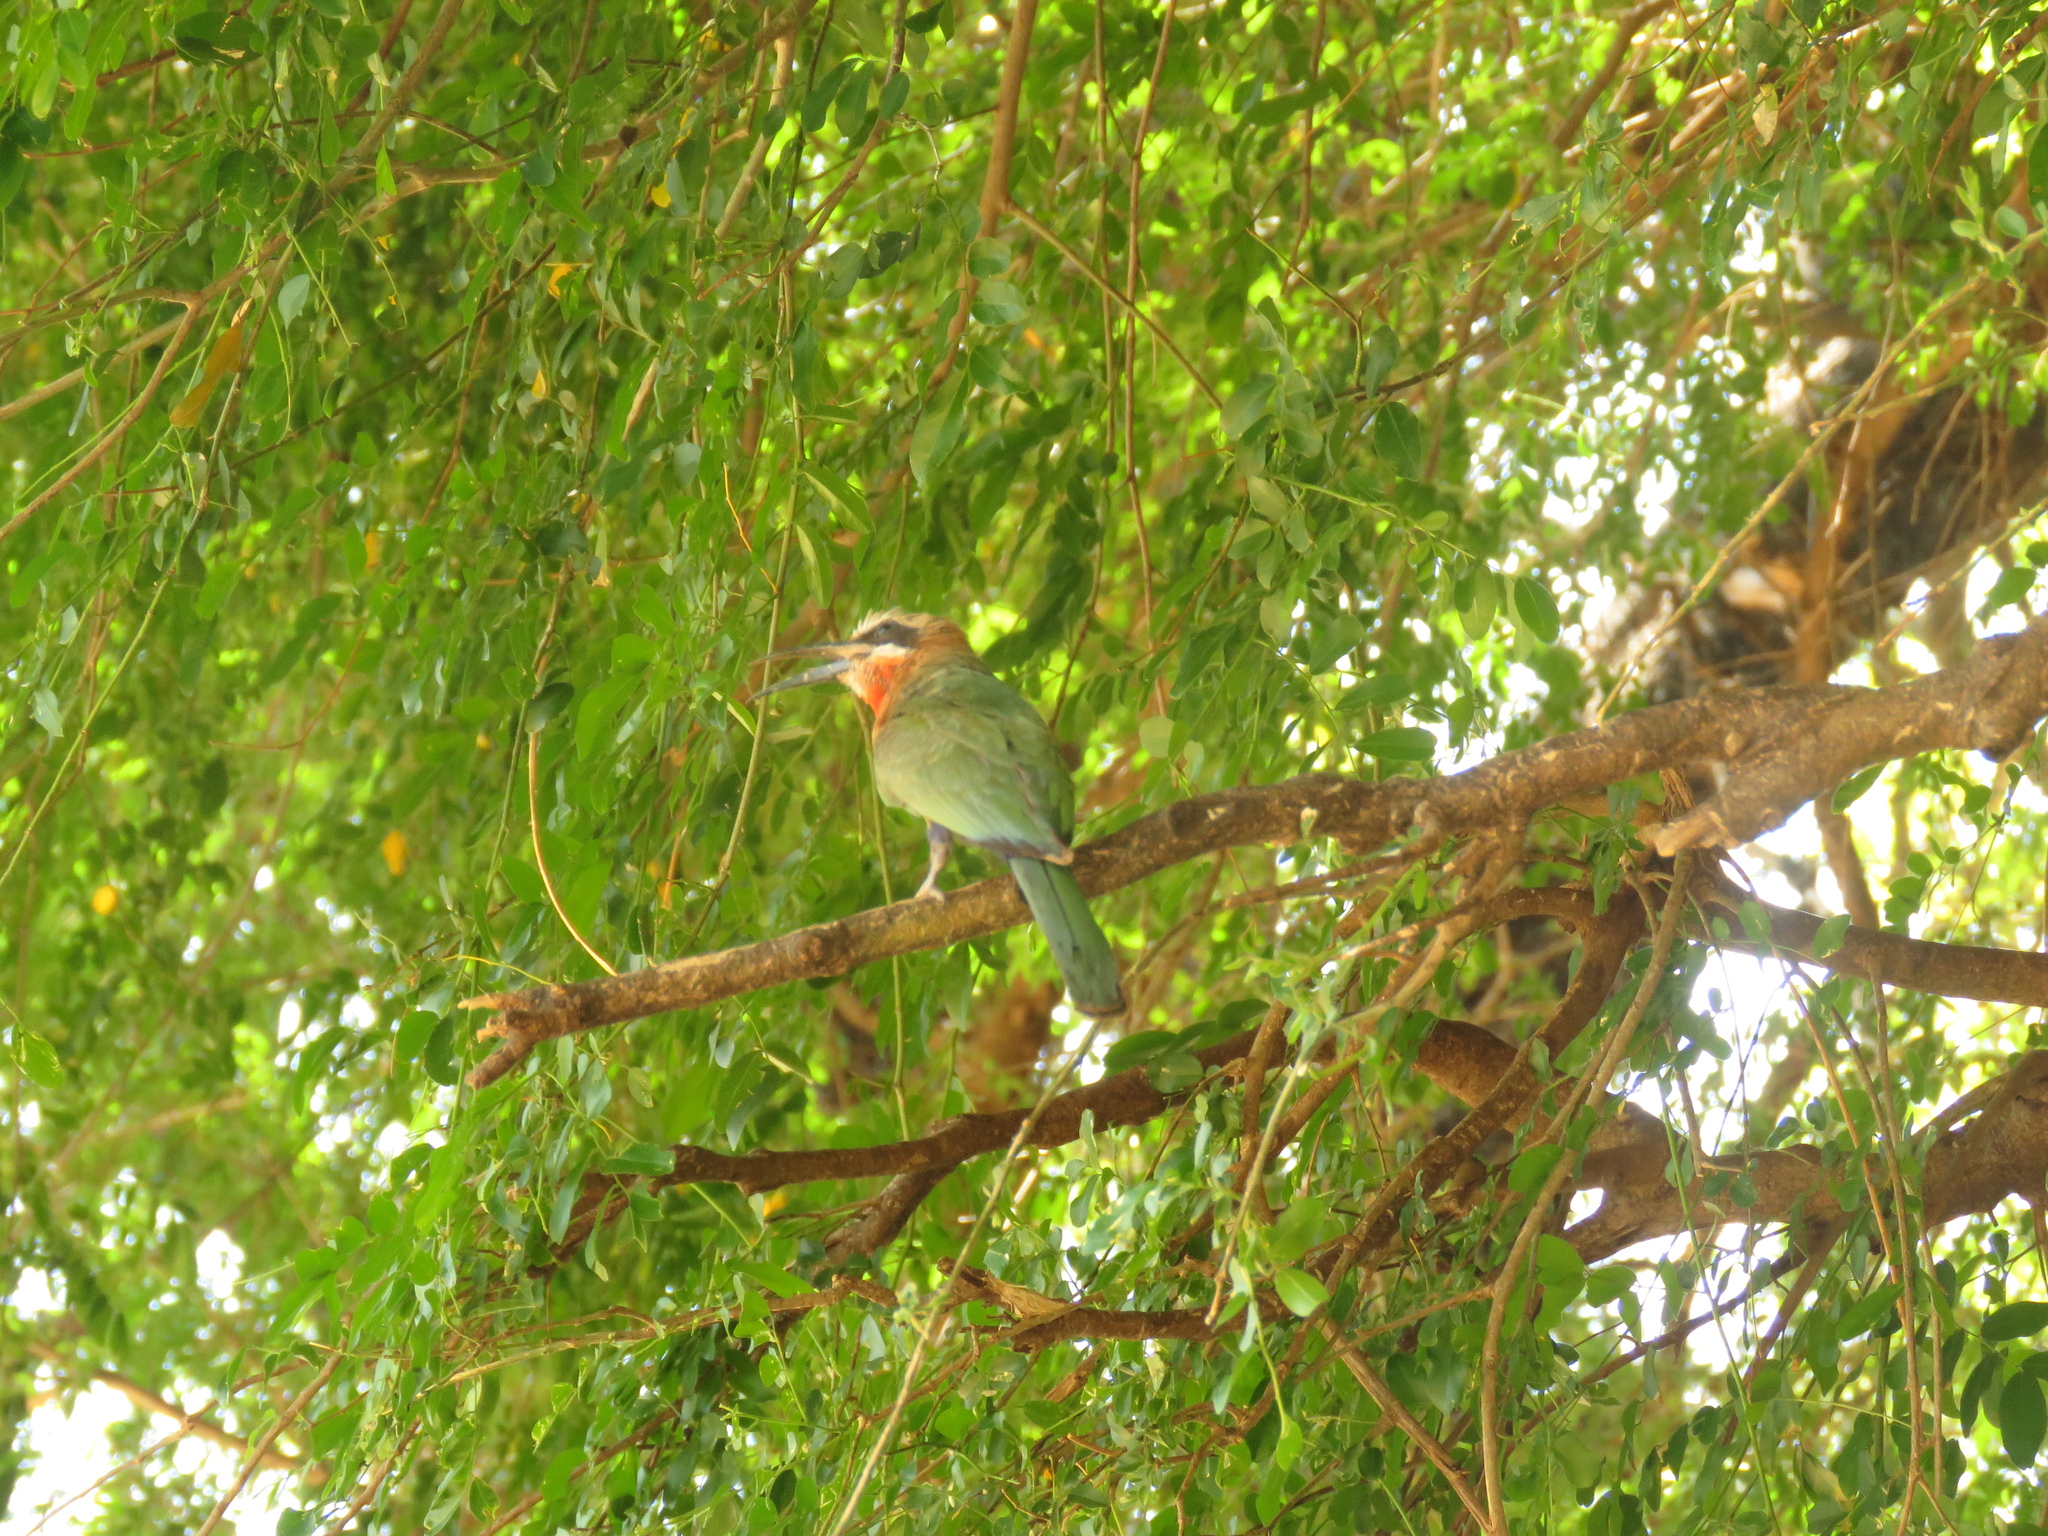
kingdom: Animalia
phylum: Chordata
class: Aves
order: Coraciiformes
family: Meropidae
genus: Merops
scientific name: Merops bullockoides
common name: White-fronted bee-eater
